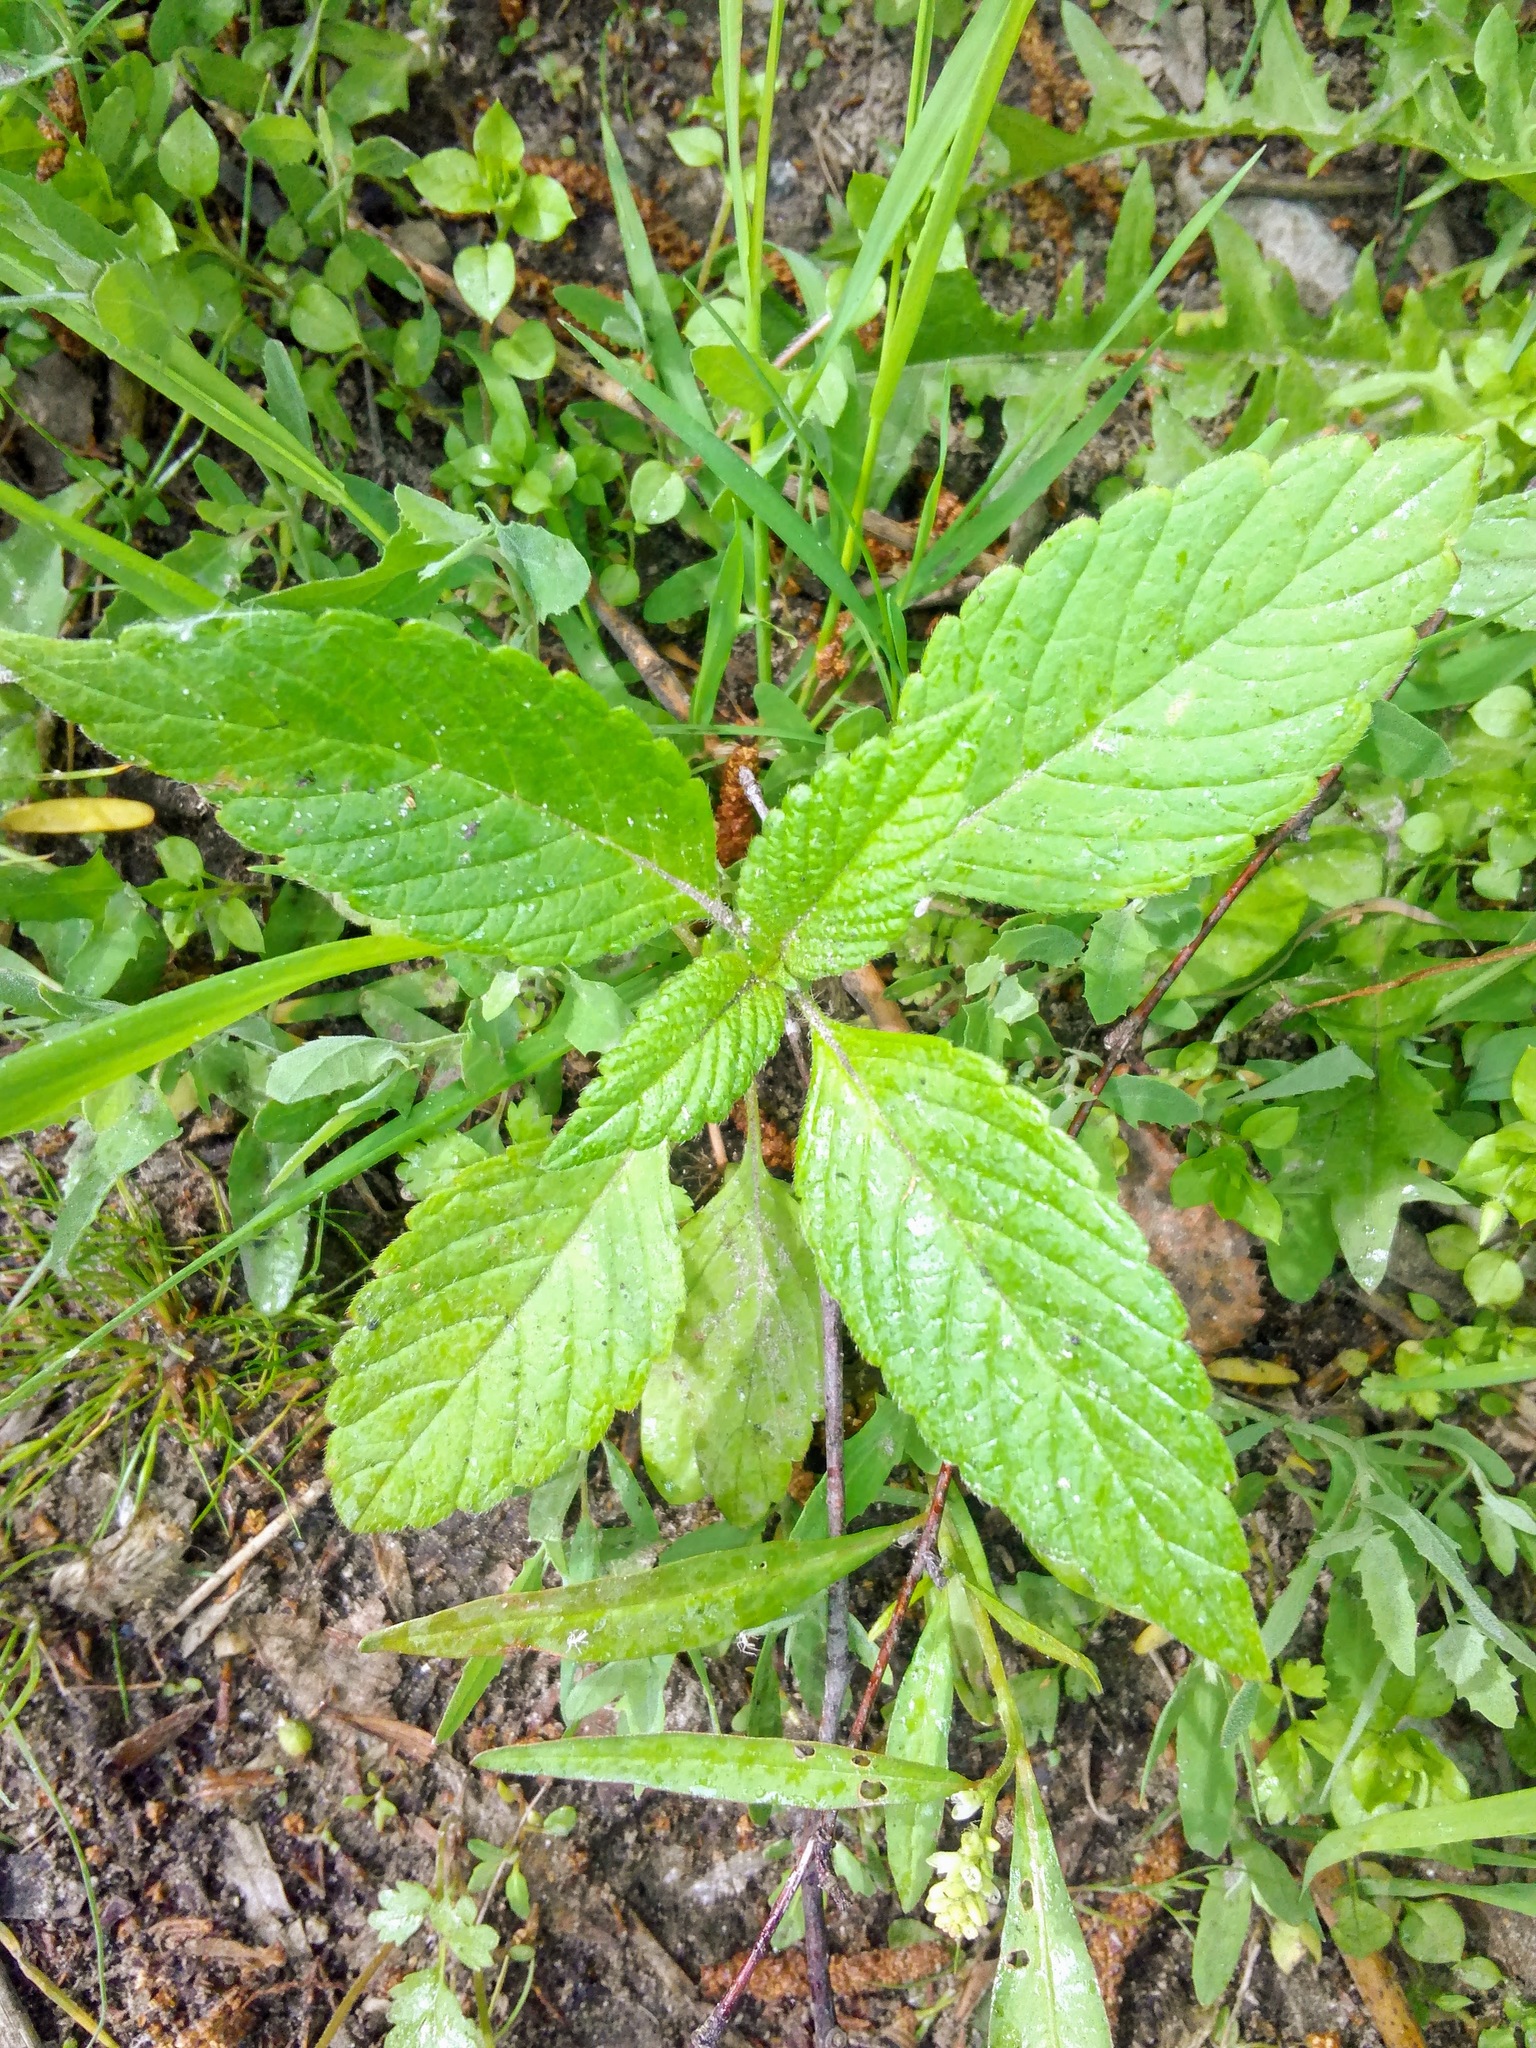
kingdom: Plantae
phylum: Tracheophyta
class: Magnoliopsida
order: Lamiales
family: Lamiaceae
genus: Galeopsis
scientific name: Galeopsis
